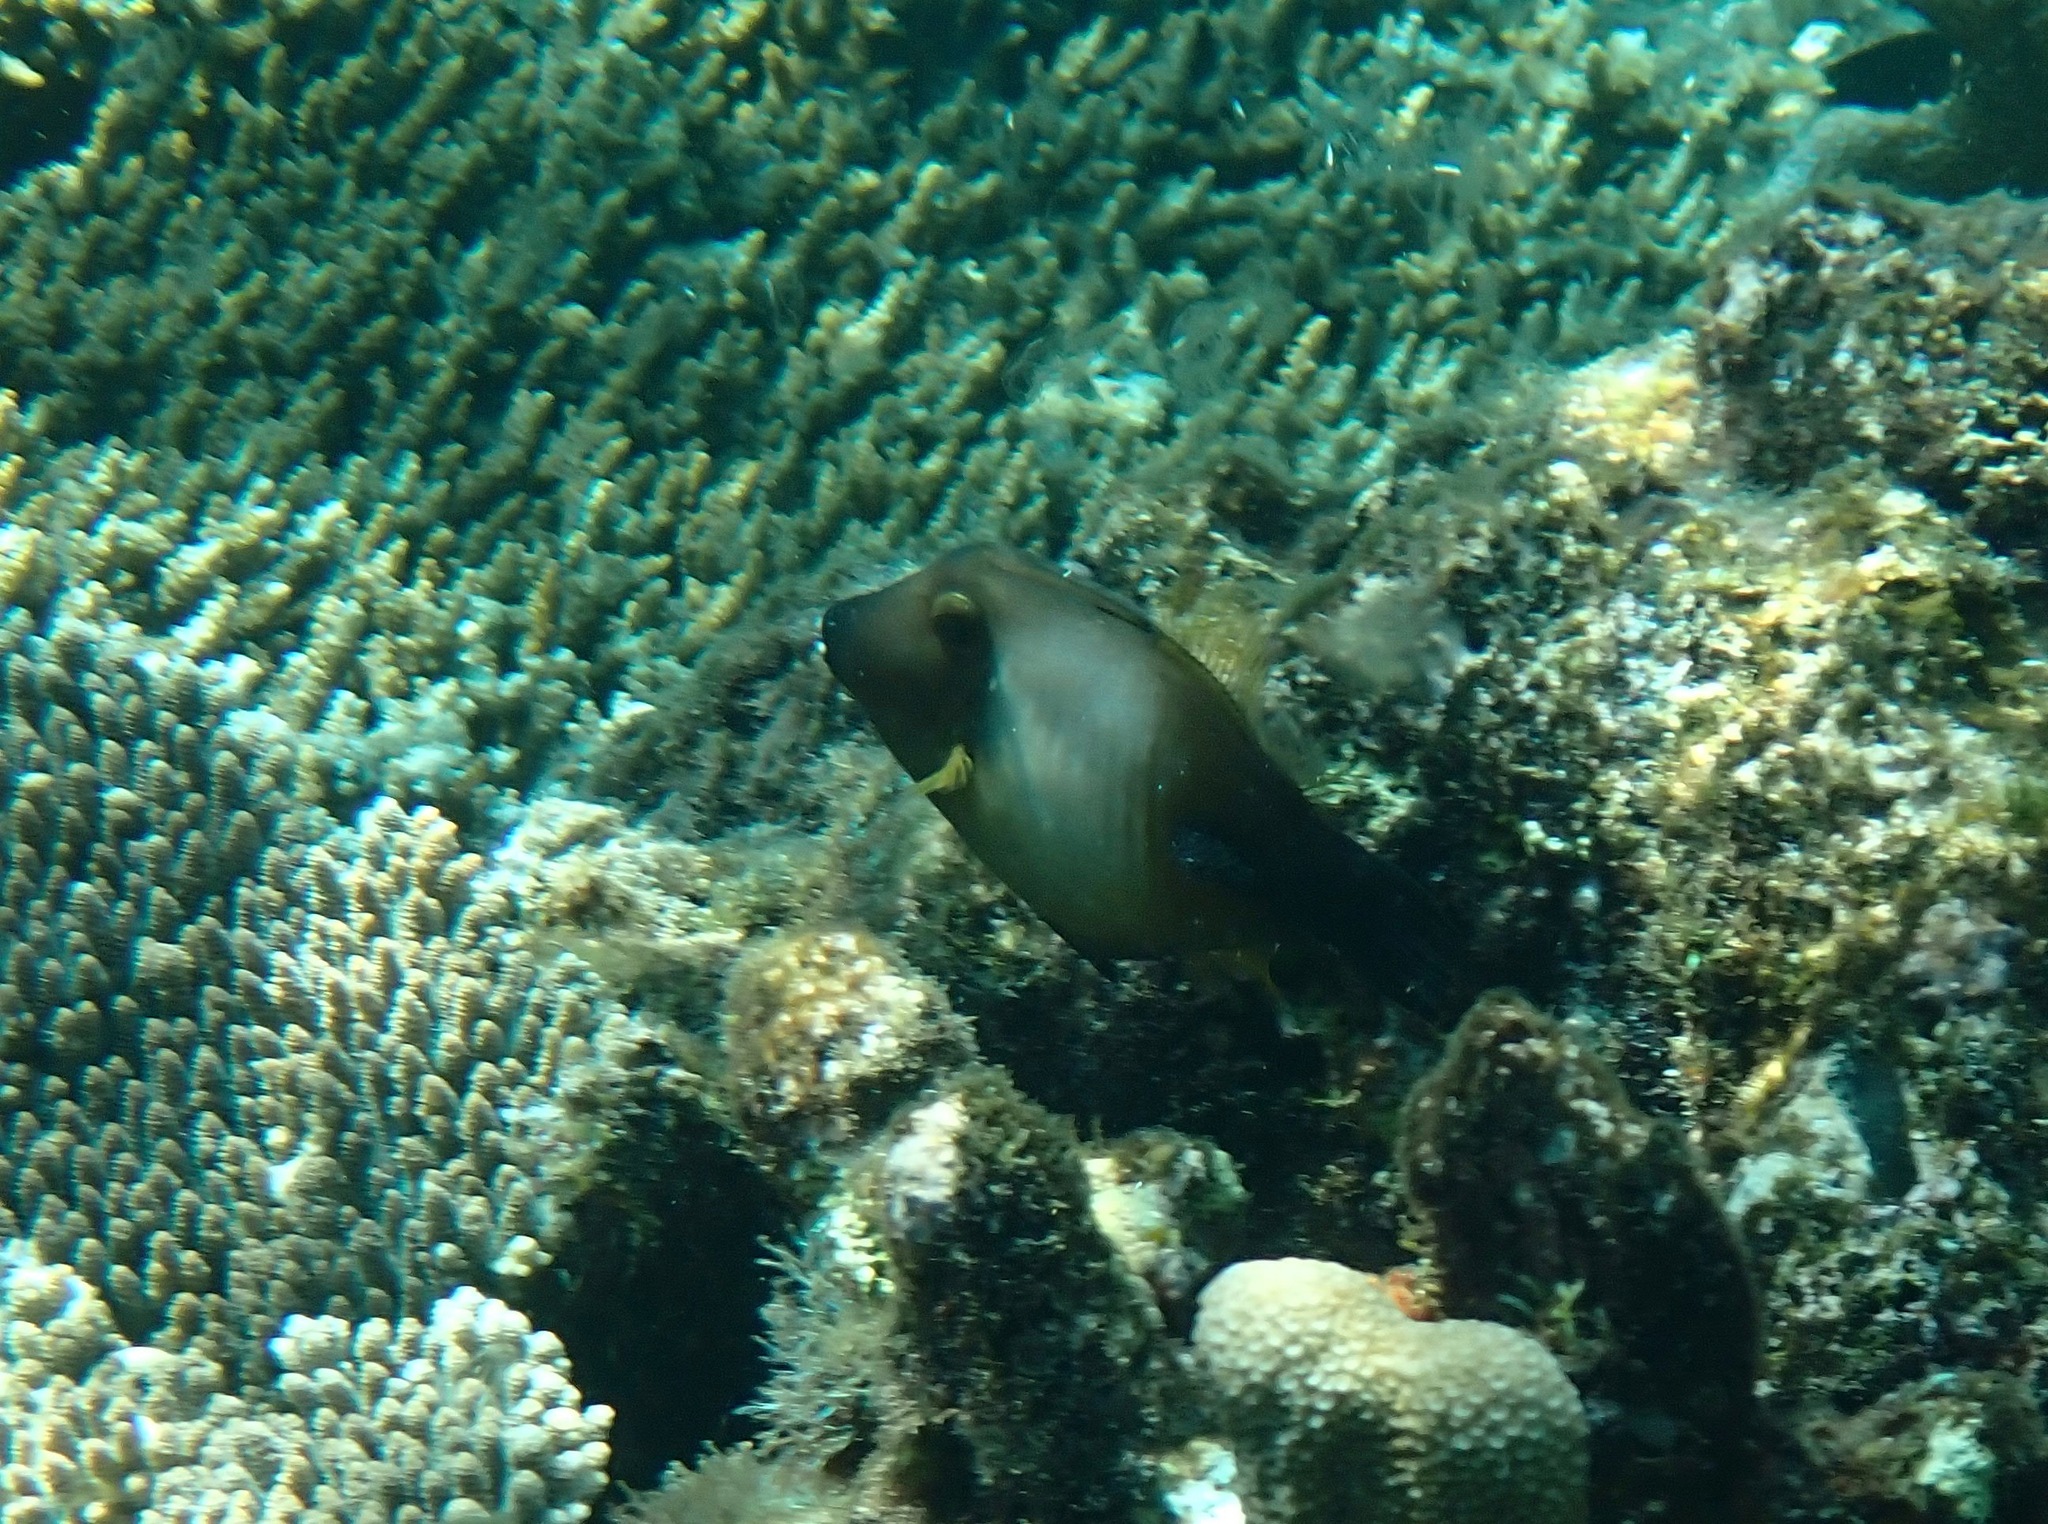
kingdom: Animalia
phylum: Chordata
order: Tetraodontiformes
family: Monacanthidae
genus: Amanses
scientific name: Amanses scopas
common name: Broom filefish
